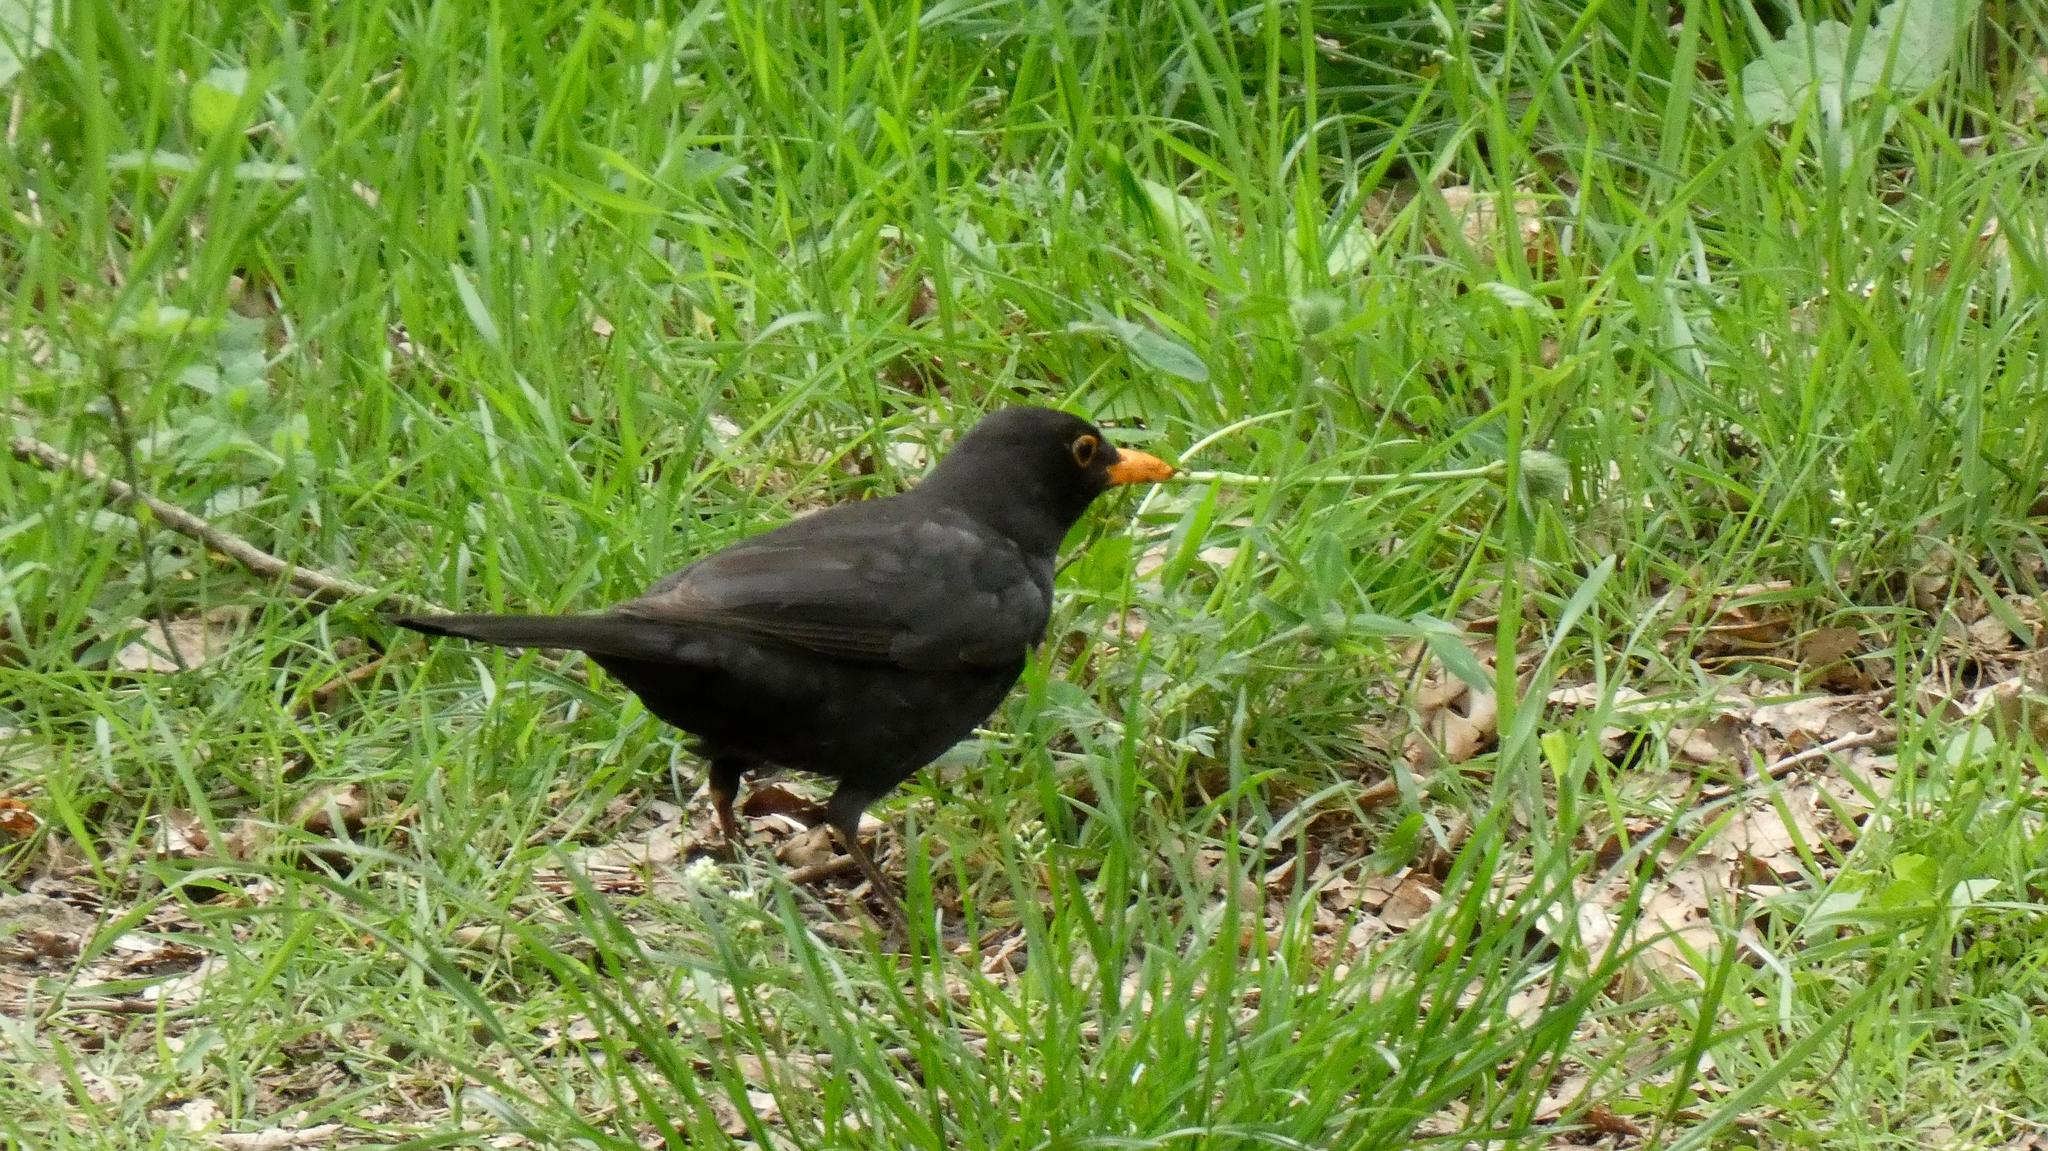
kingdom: Animalia
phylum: Chordata
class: Aves
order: Passeriformes
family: Turdidae
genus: Turdus
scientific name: Turdus merula
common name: Common blackbird
